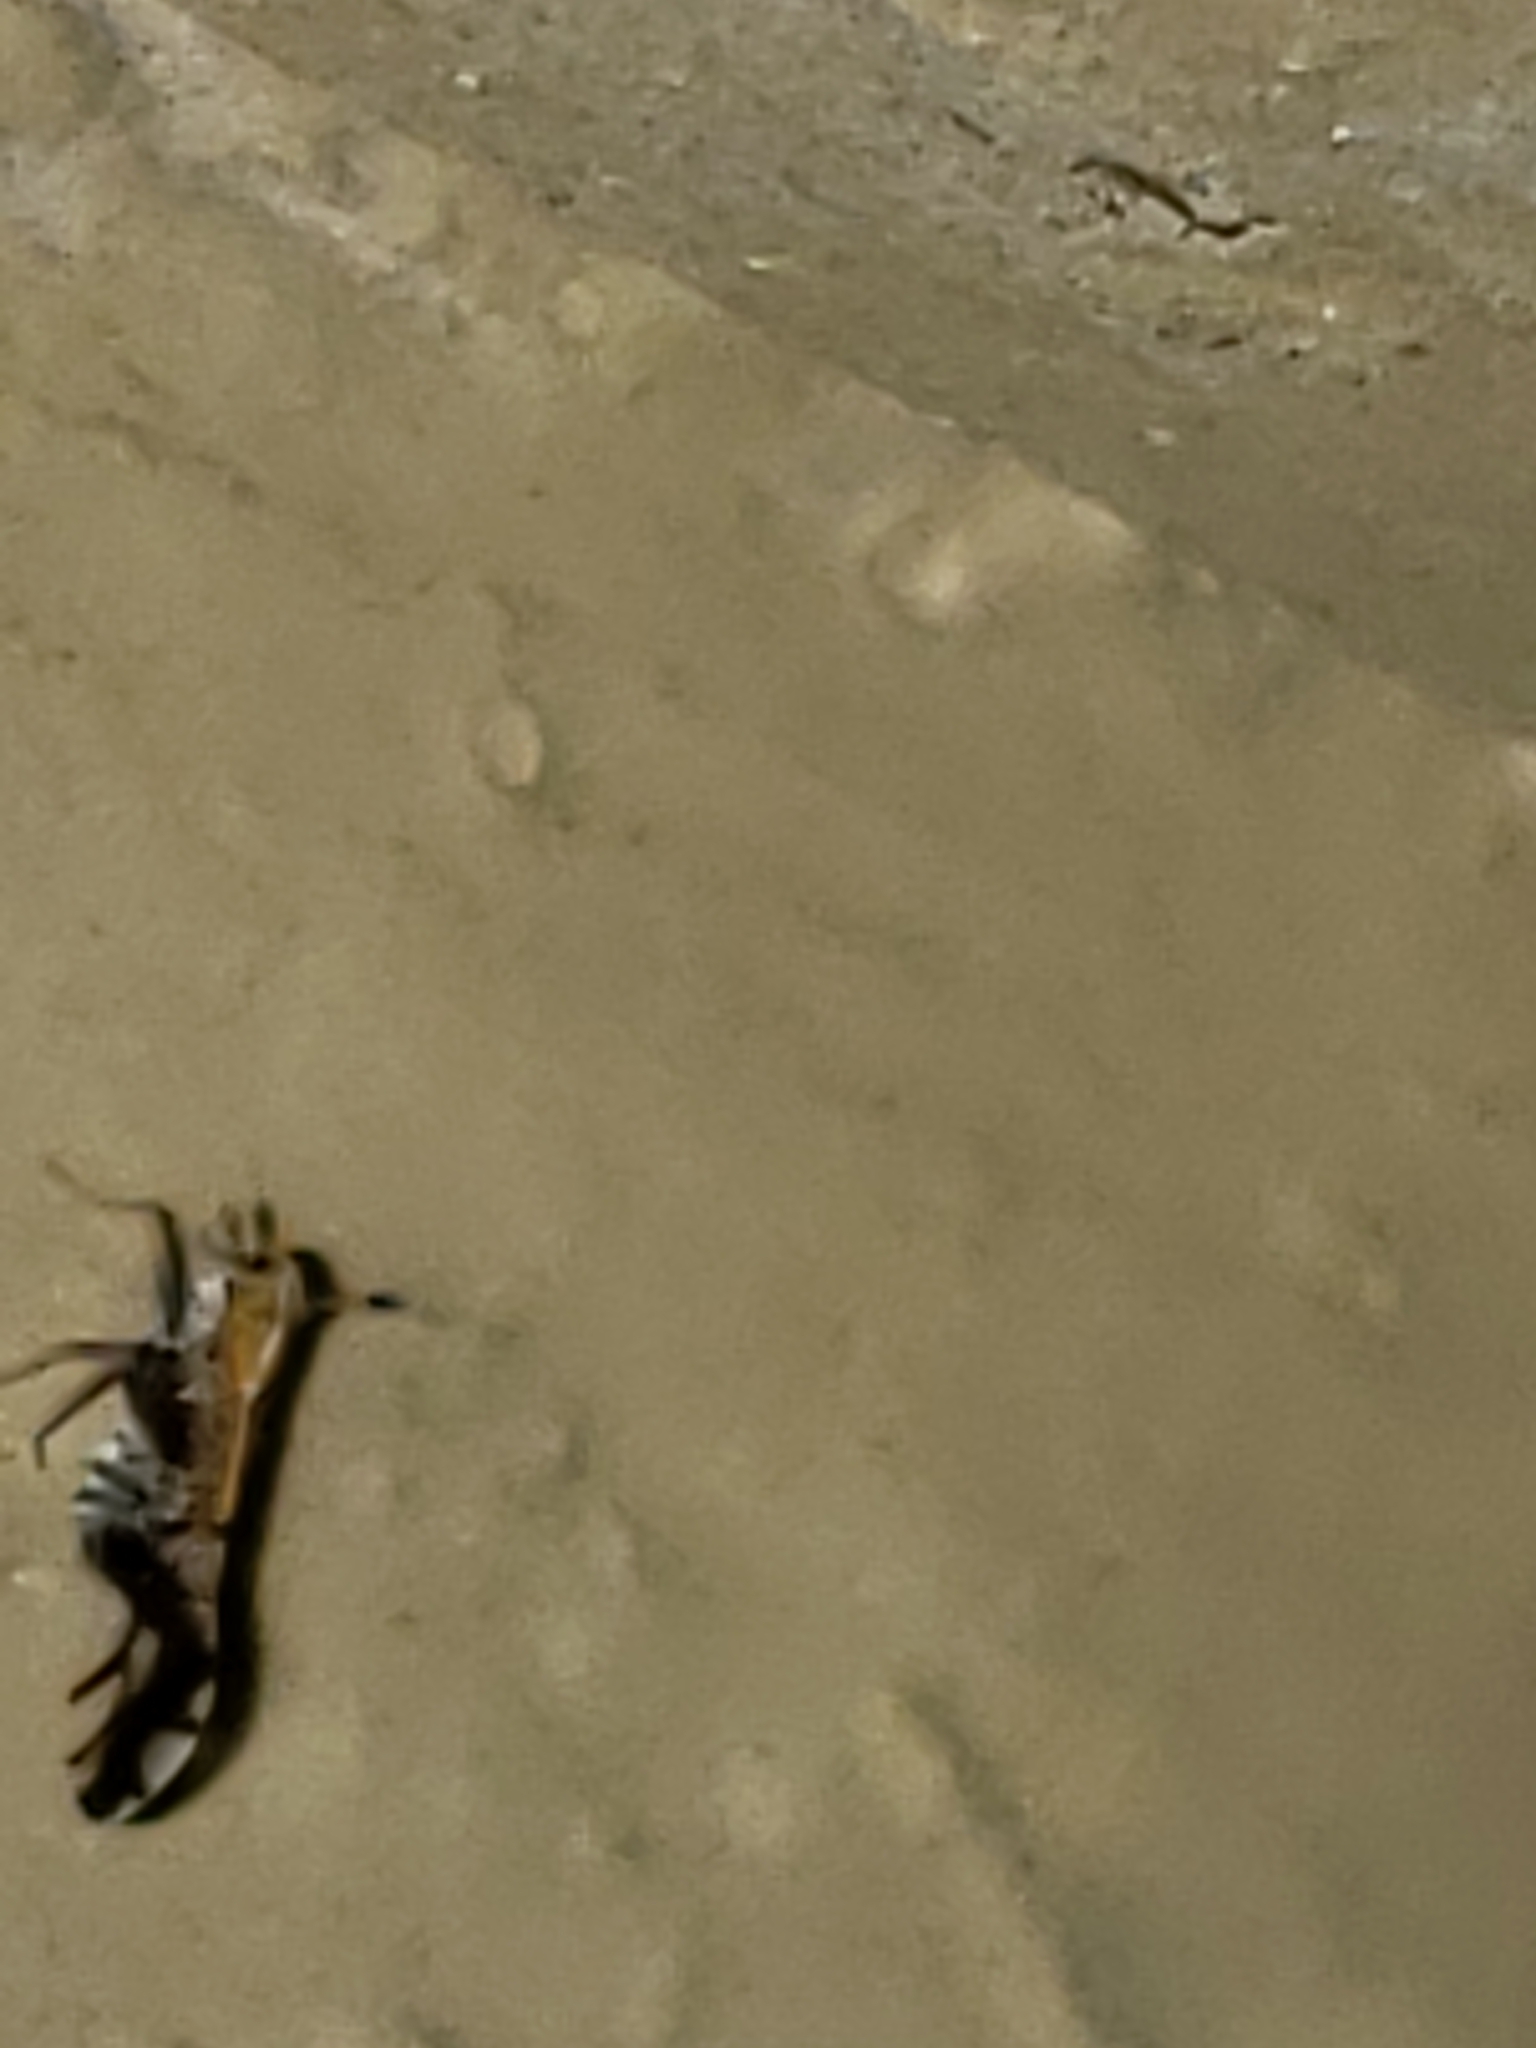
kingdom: Animalia
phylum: Arthropoda
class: Insecta
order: Hemiptera
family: Delphacidae
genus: Liburniella
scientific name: Liburniella ornata
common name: Ornate planthopper
